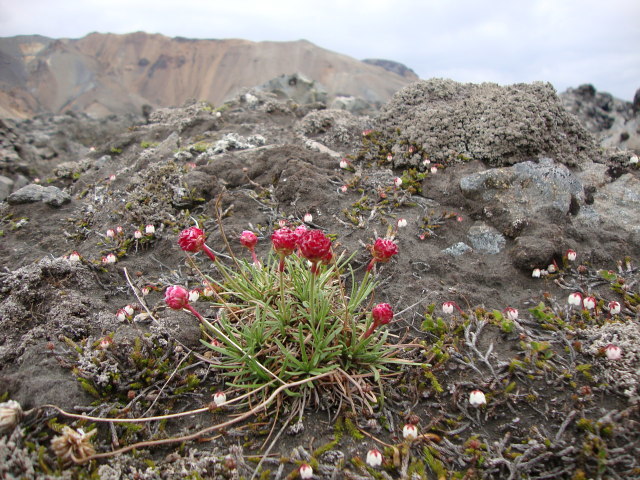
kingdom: Plantae
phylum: Tracheophyta
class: Magnoliopsida
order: Caryophyllales
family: Plumbaginaceae
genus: Armeria
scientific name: Armeria maritima
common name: Thrift
